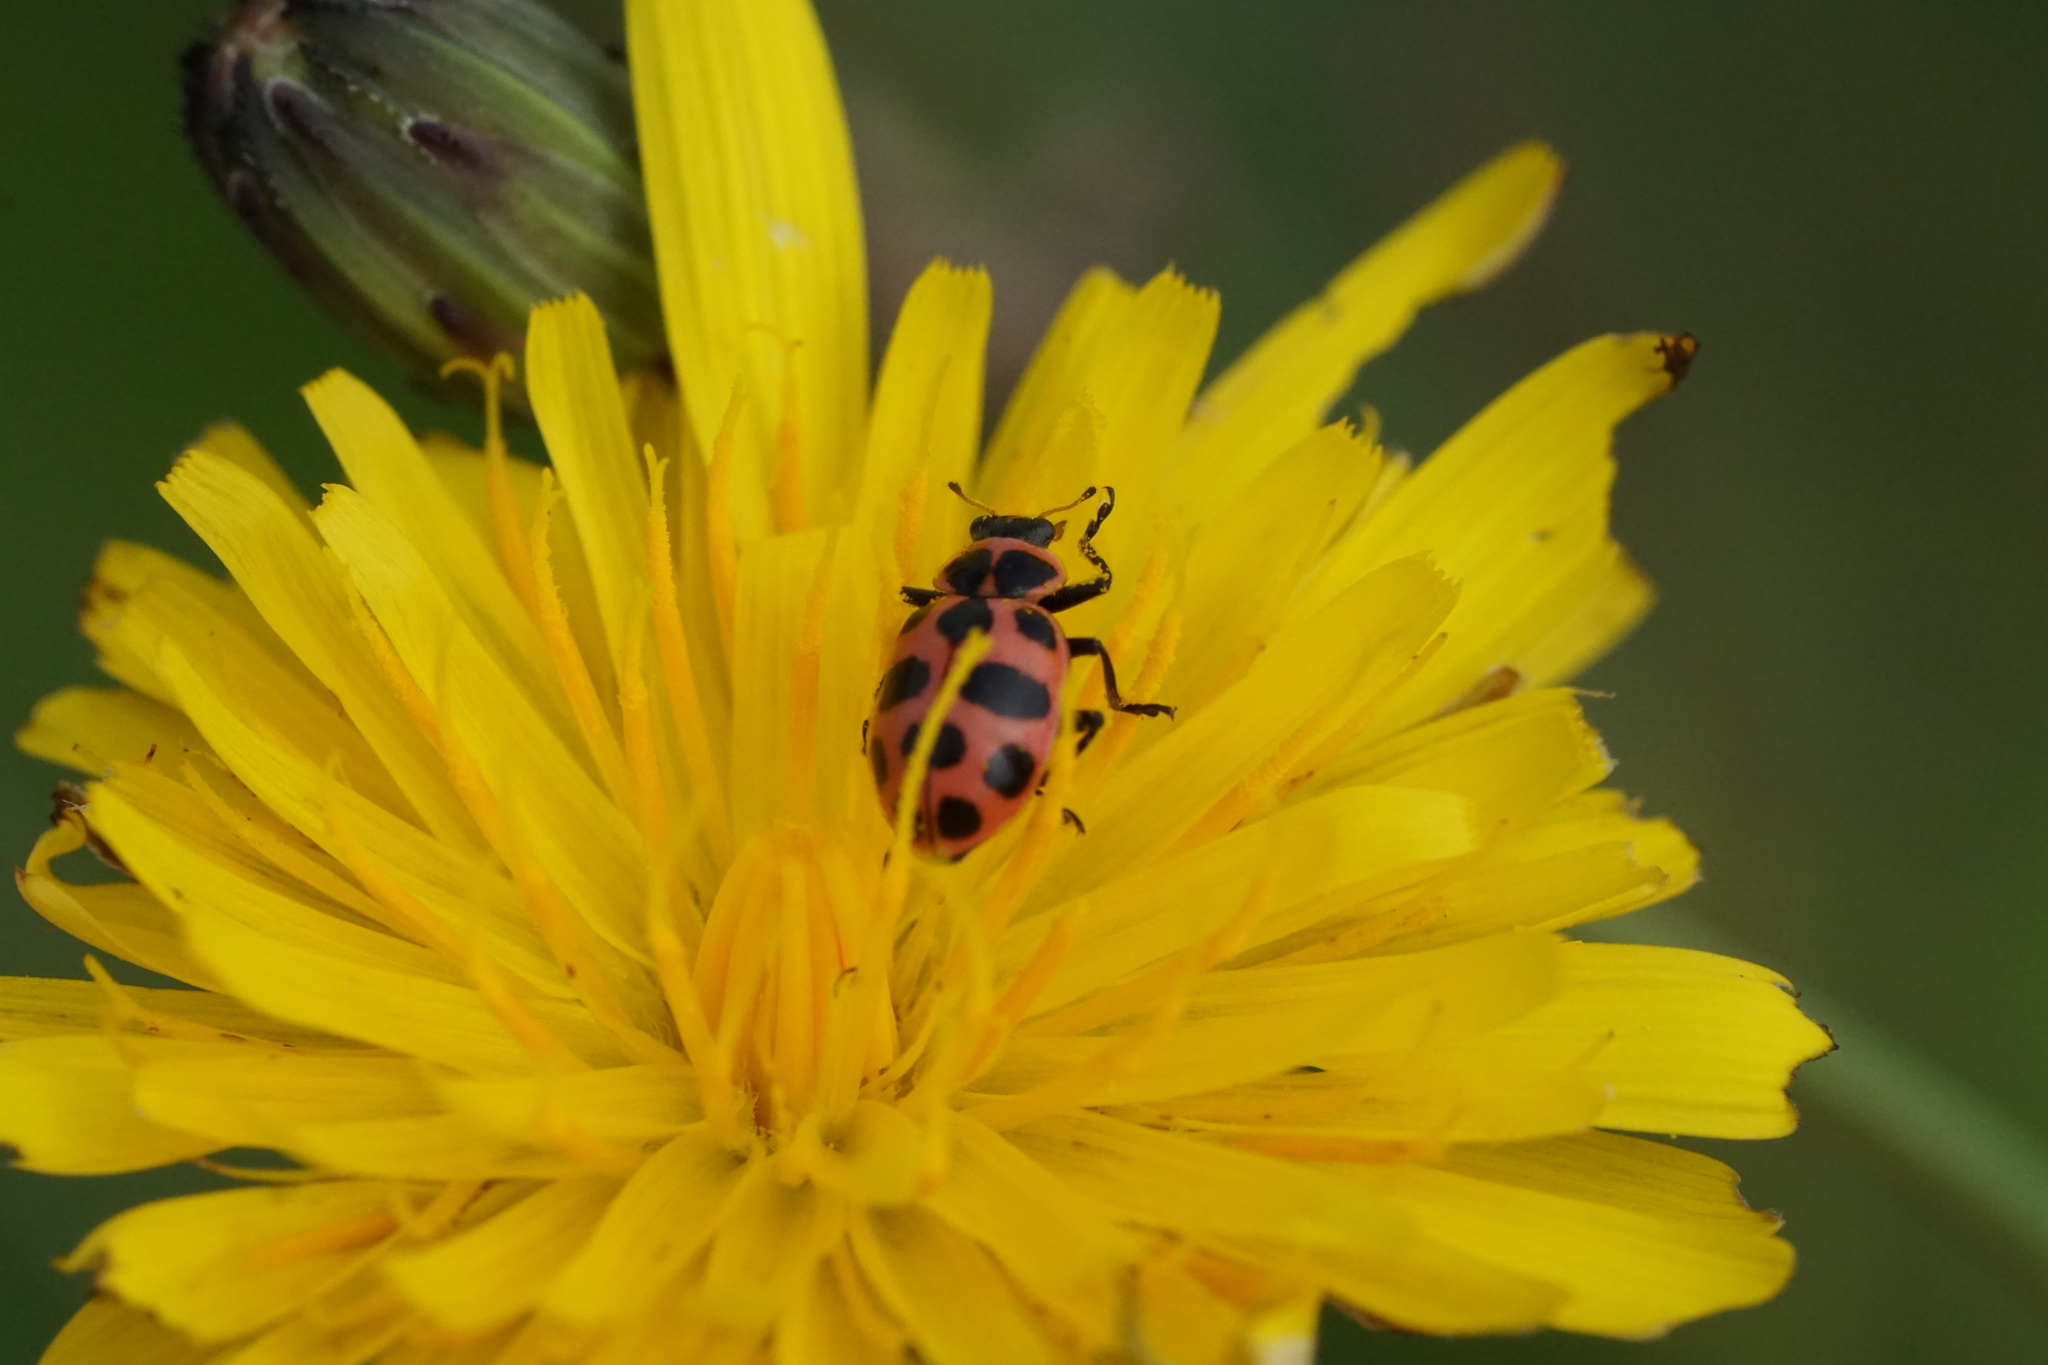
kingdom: Animalia
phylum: Arthropoda
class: Insecta
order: Coleoptera
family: Coccinellidae
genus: Coleomegilla
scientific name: Coleomegilla maculata
